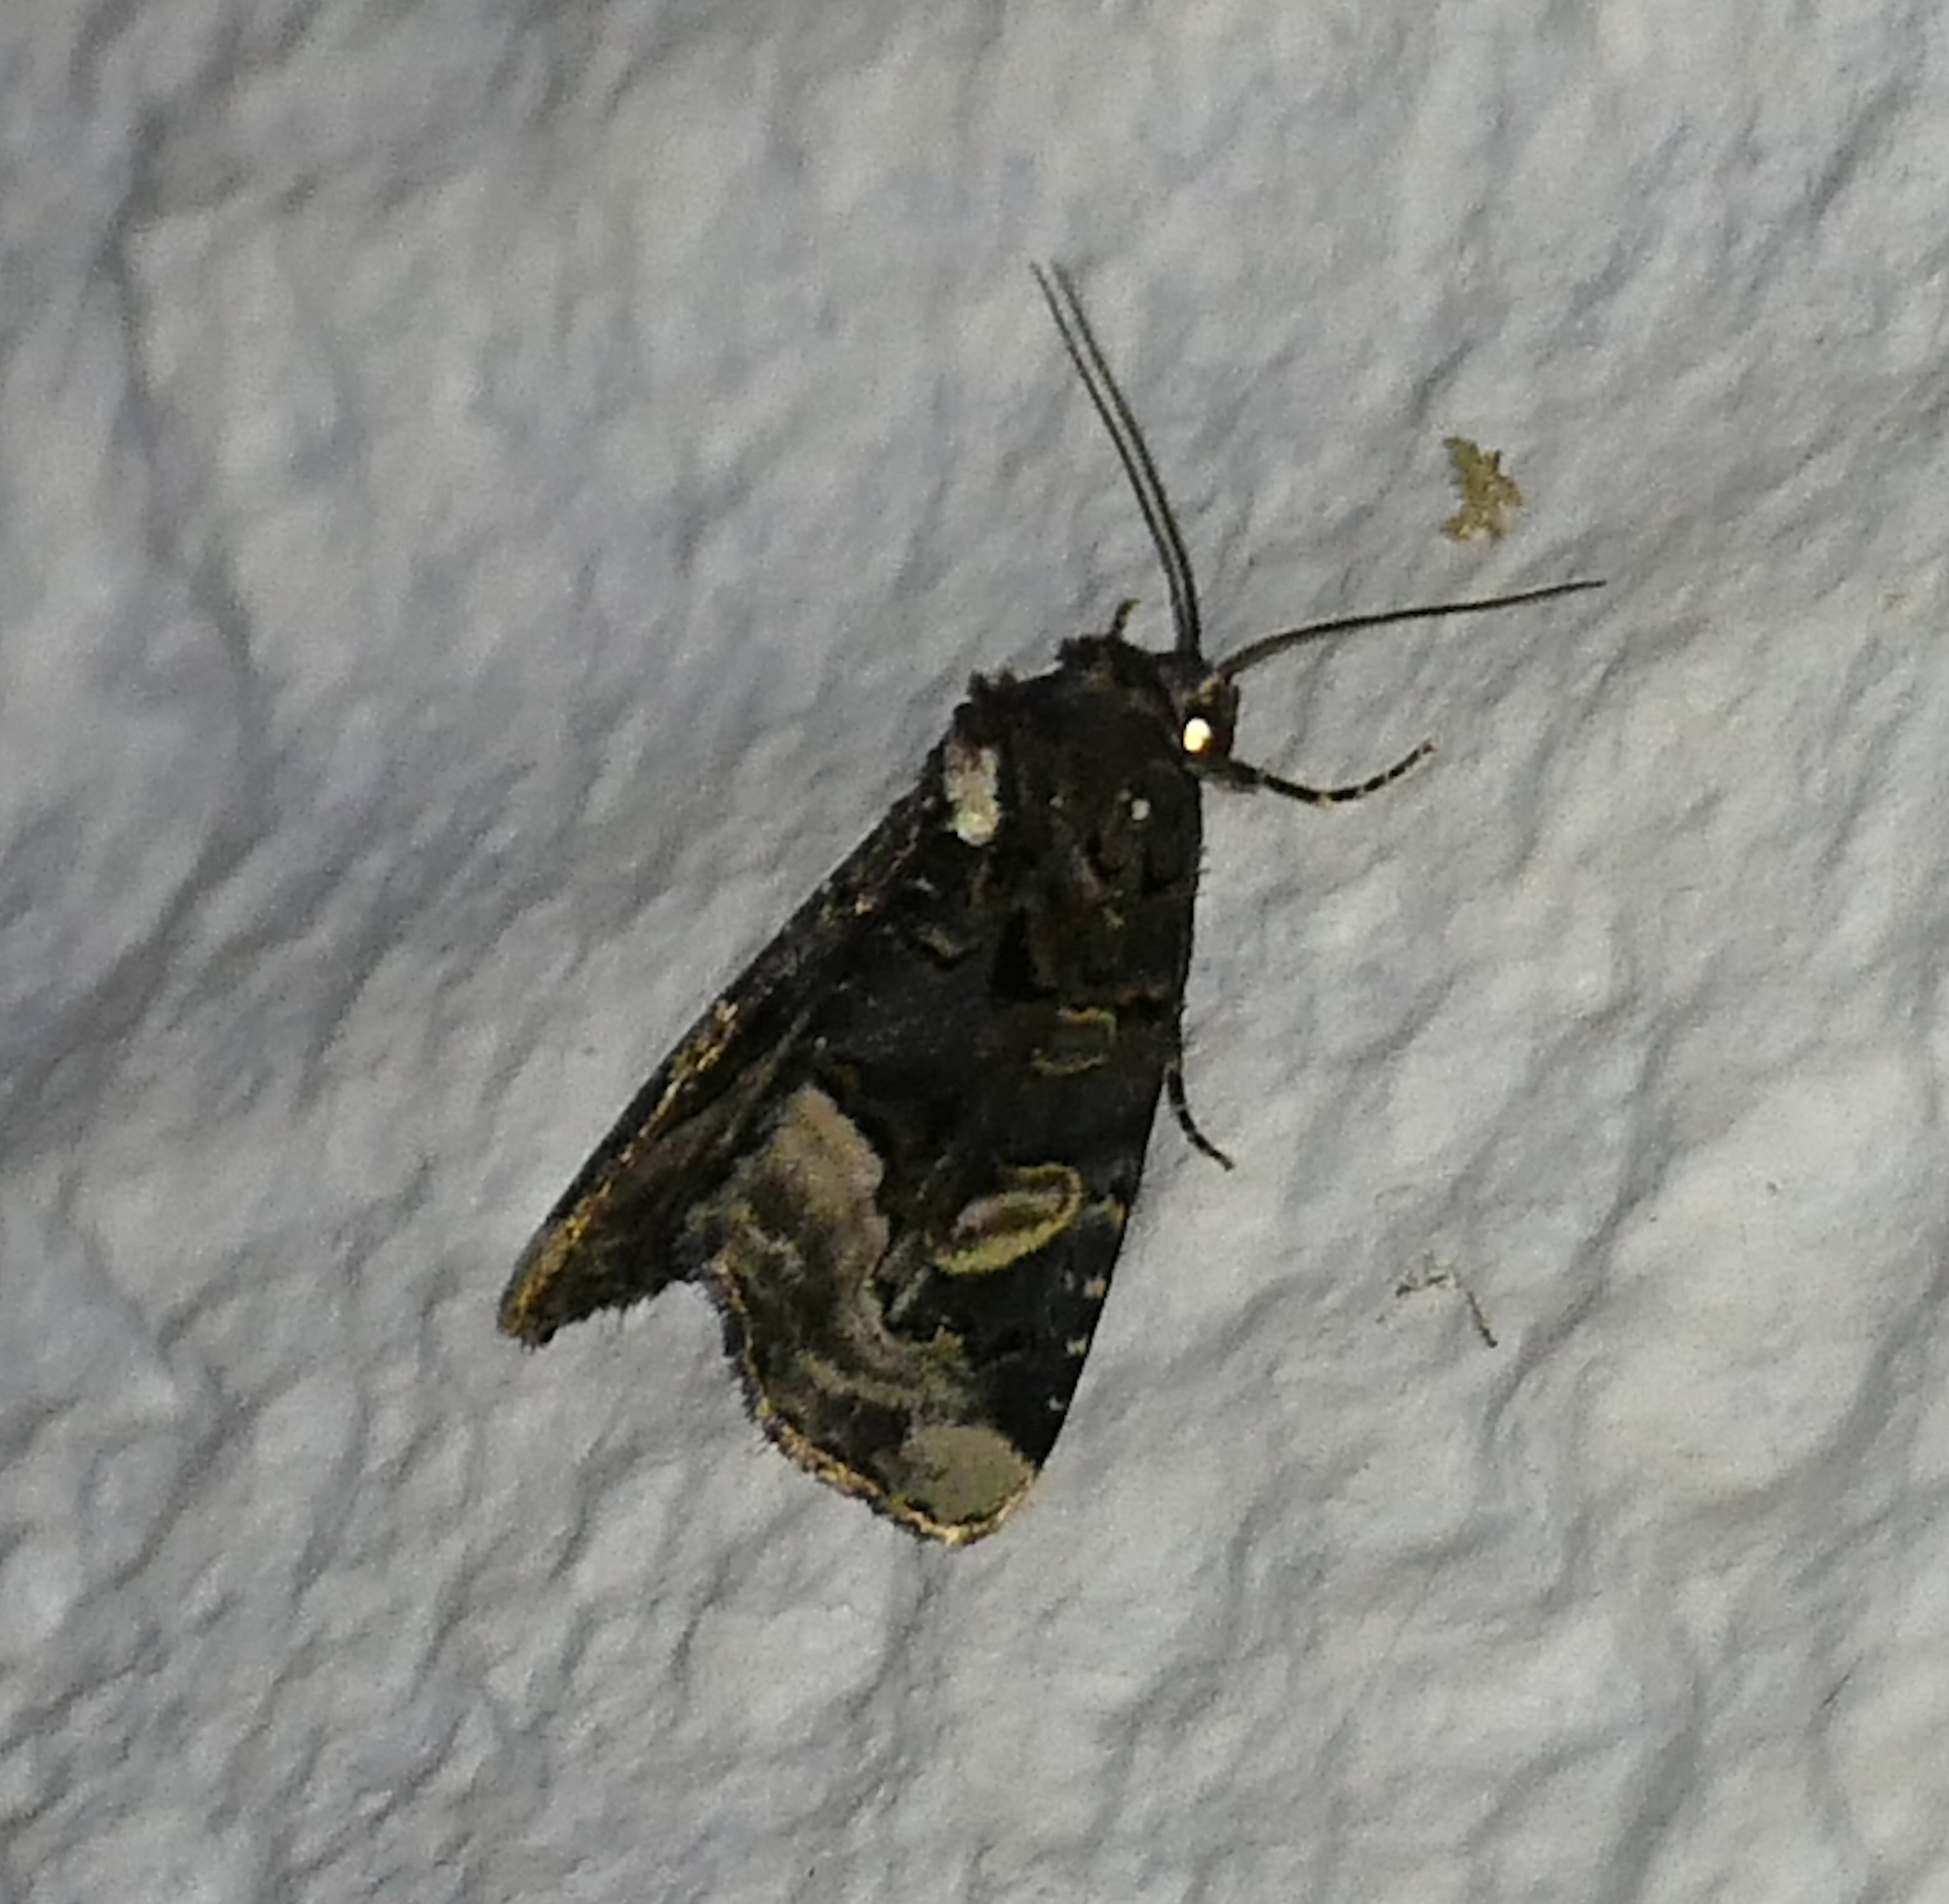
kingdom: Animalia
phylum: Arthropoda
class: Insecta
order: Lepidoptera
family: Noctuidae
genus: Homophoberia
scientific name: Homophoberia apicosa
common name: Black wedge-spot
